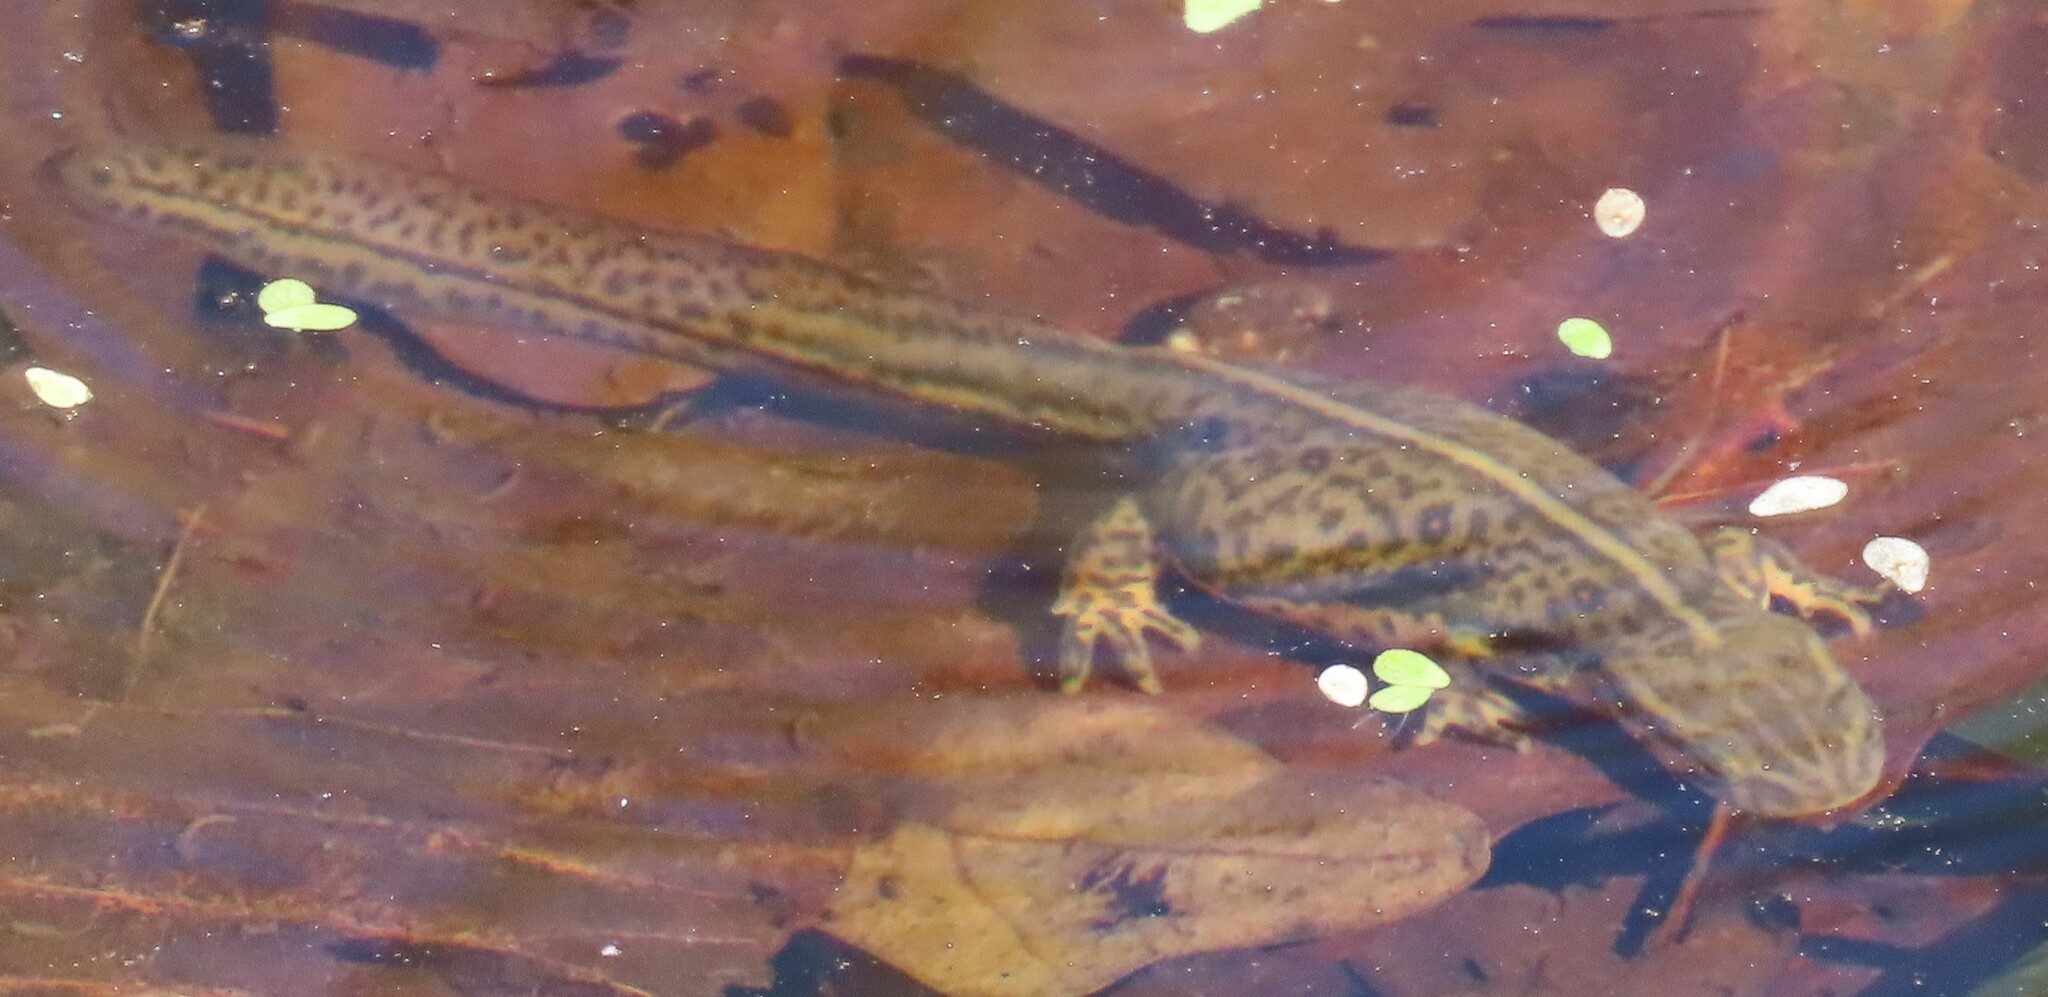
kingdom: Animalia
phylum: Chordata
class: Amphibia
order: Caudata
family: Salamandridae
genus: Notophthalmus
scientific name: Notophthalmus viridescens
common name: Eastern newt
